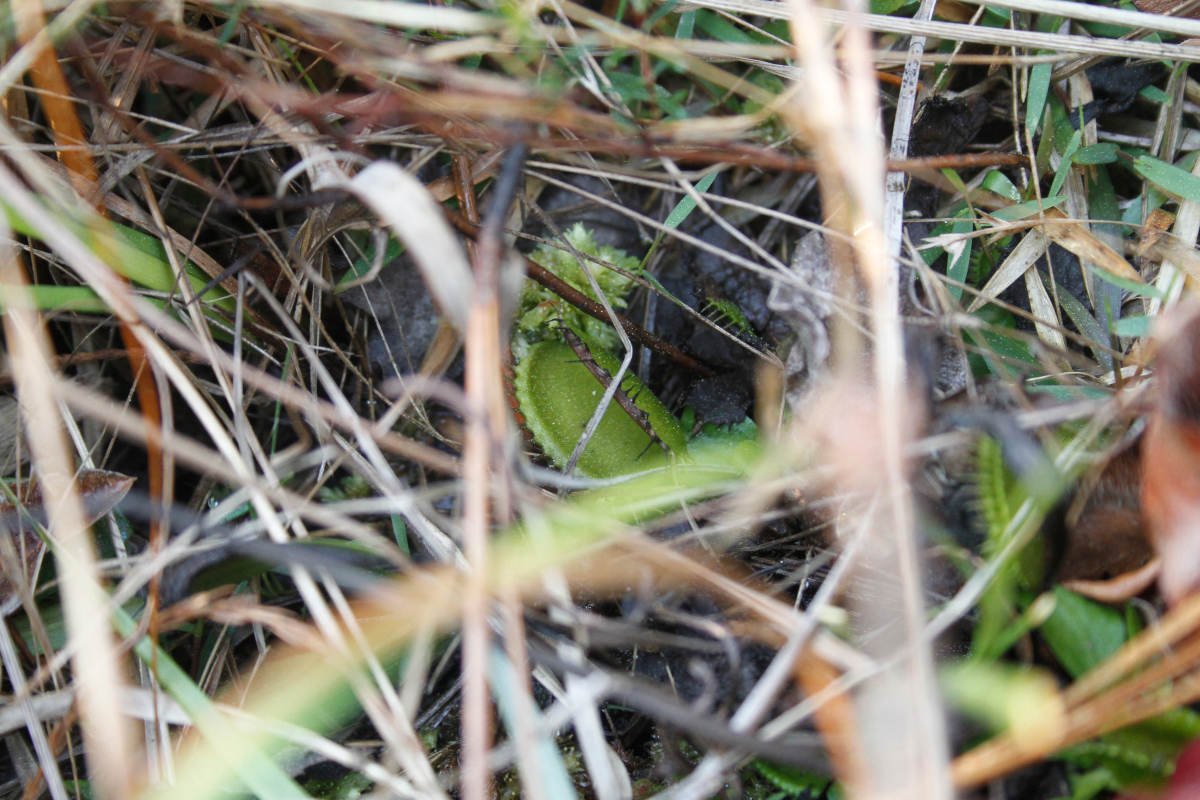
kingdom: Plantae
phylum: Tracheophyta
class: Magnoliopsida
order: Caryophyllales
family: Droseraceae
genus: Dionaea
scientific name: Dionaea muscipula
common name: Venus flytrap
